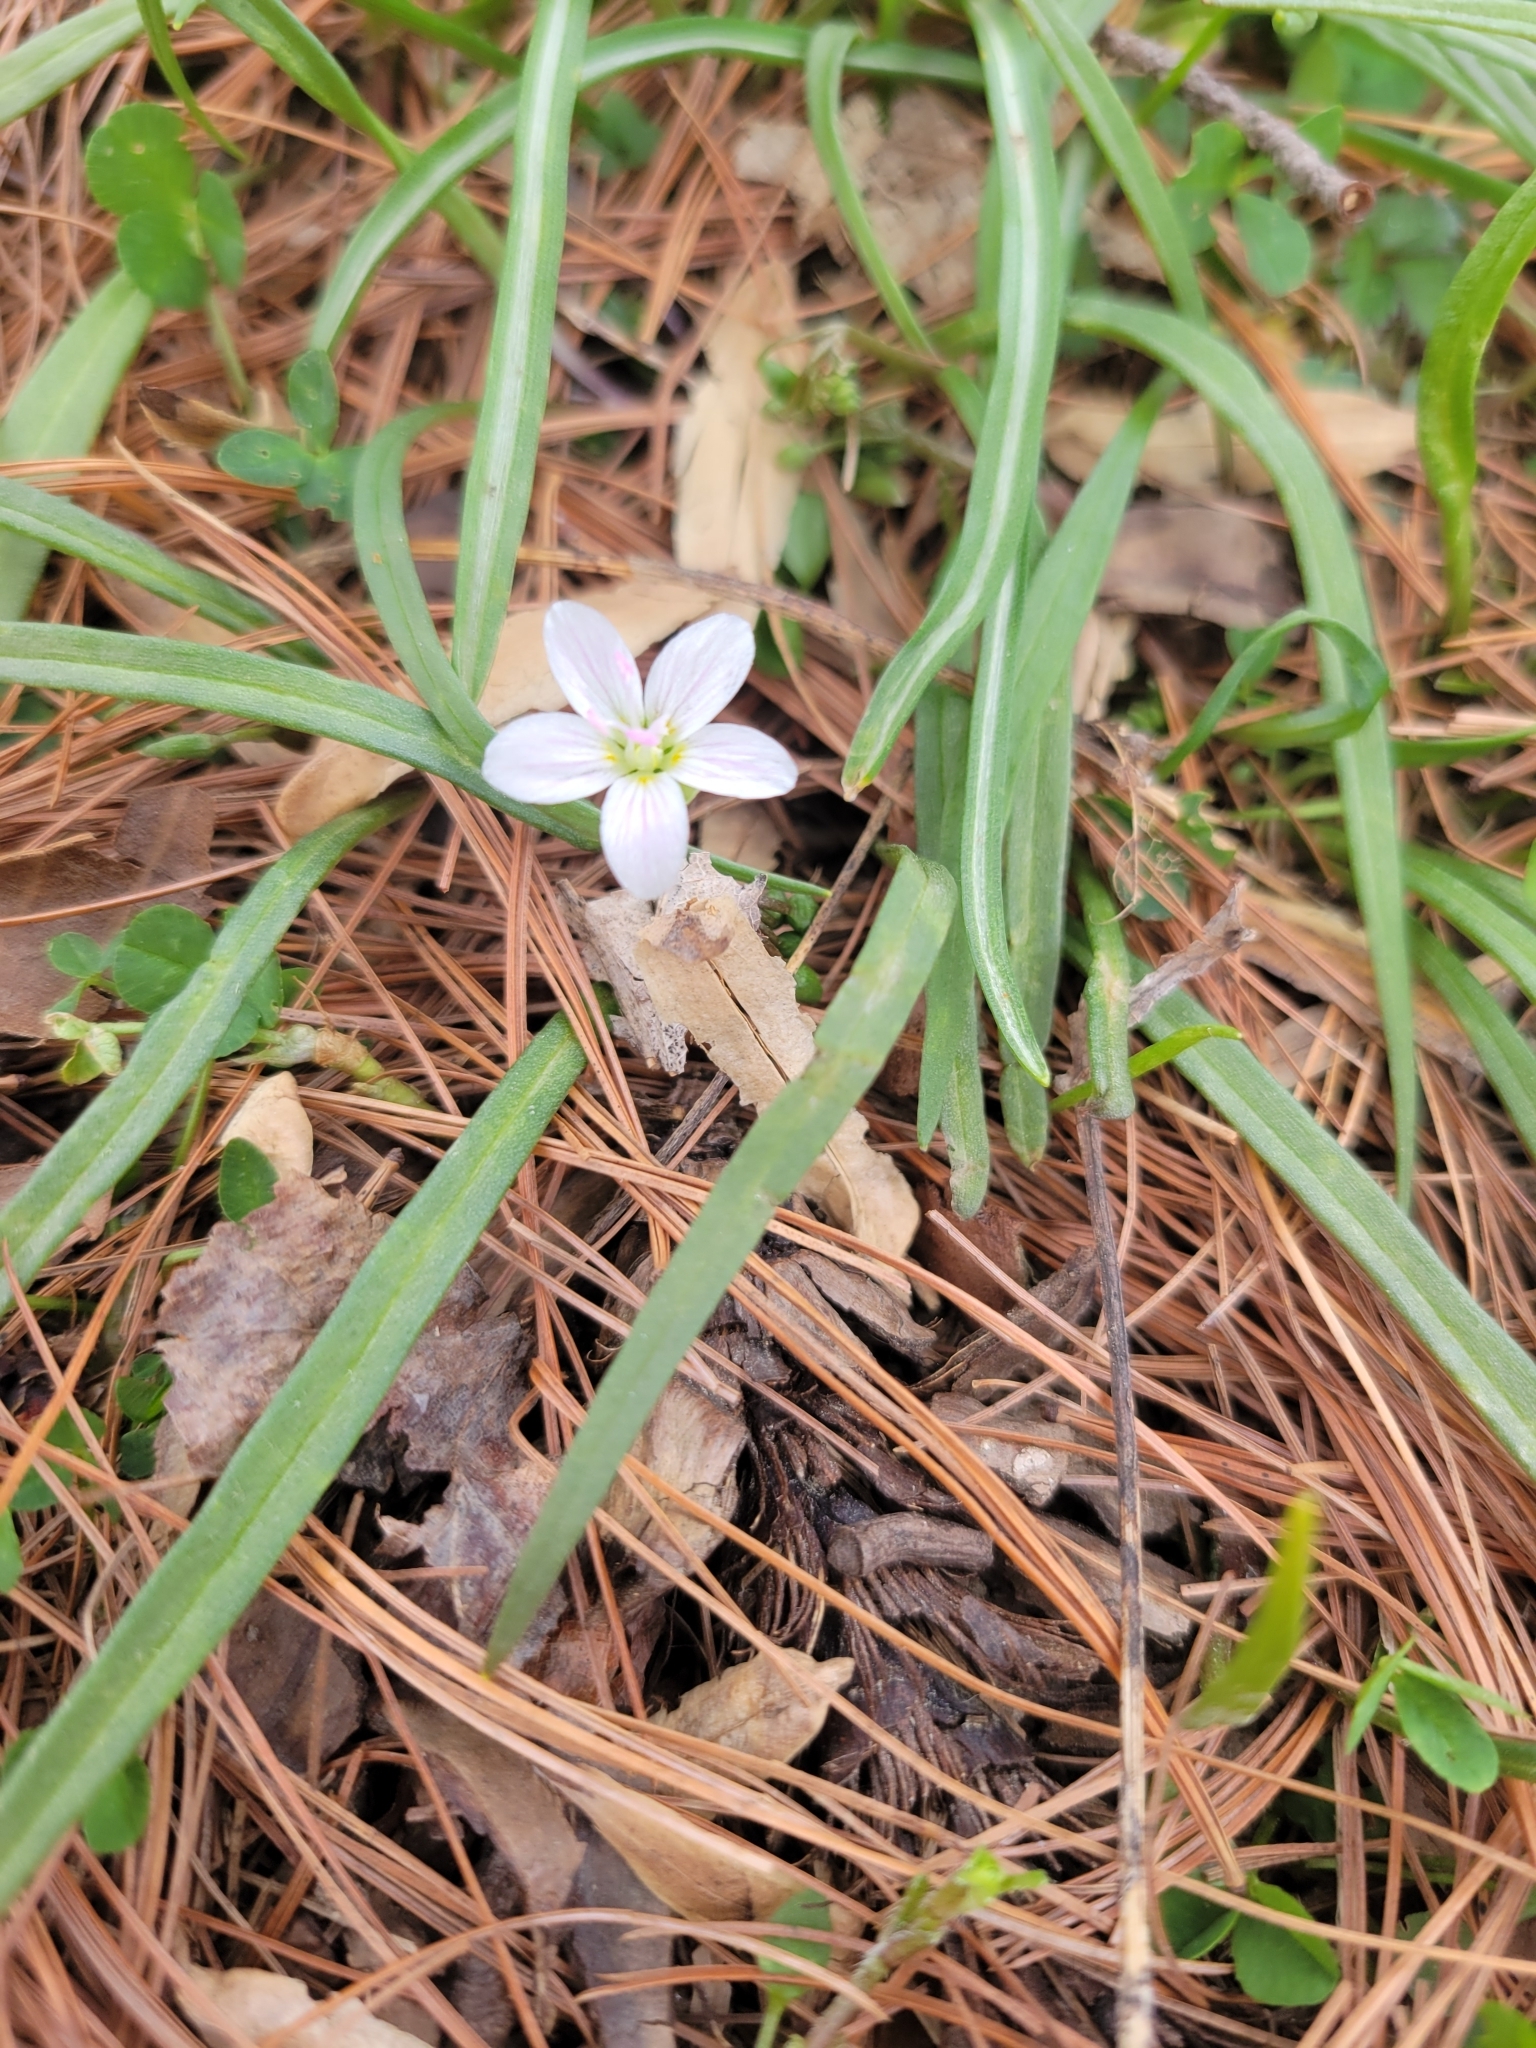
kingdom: Plantae
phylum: Tracheophyta
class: Magnoliopsida
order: Caryophyllales
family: Montiaceae
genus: Claytonia
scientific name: Claytonia virginica
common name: Virginia springbeauty
